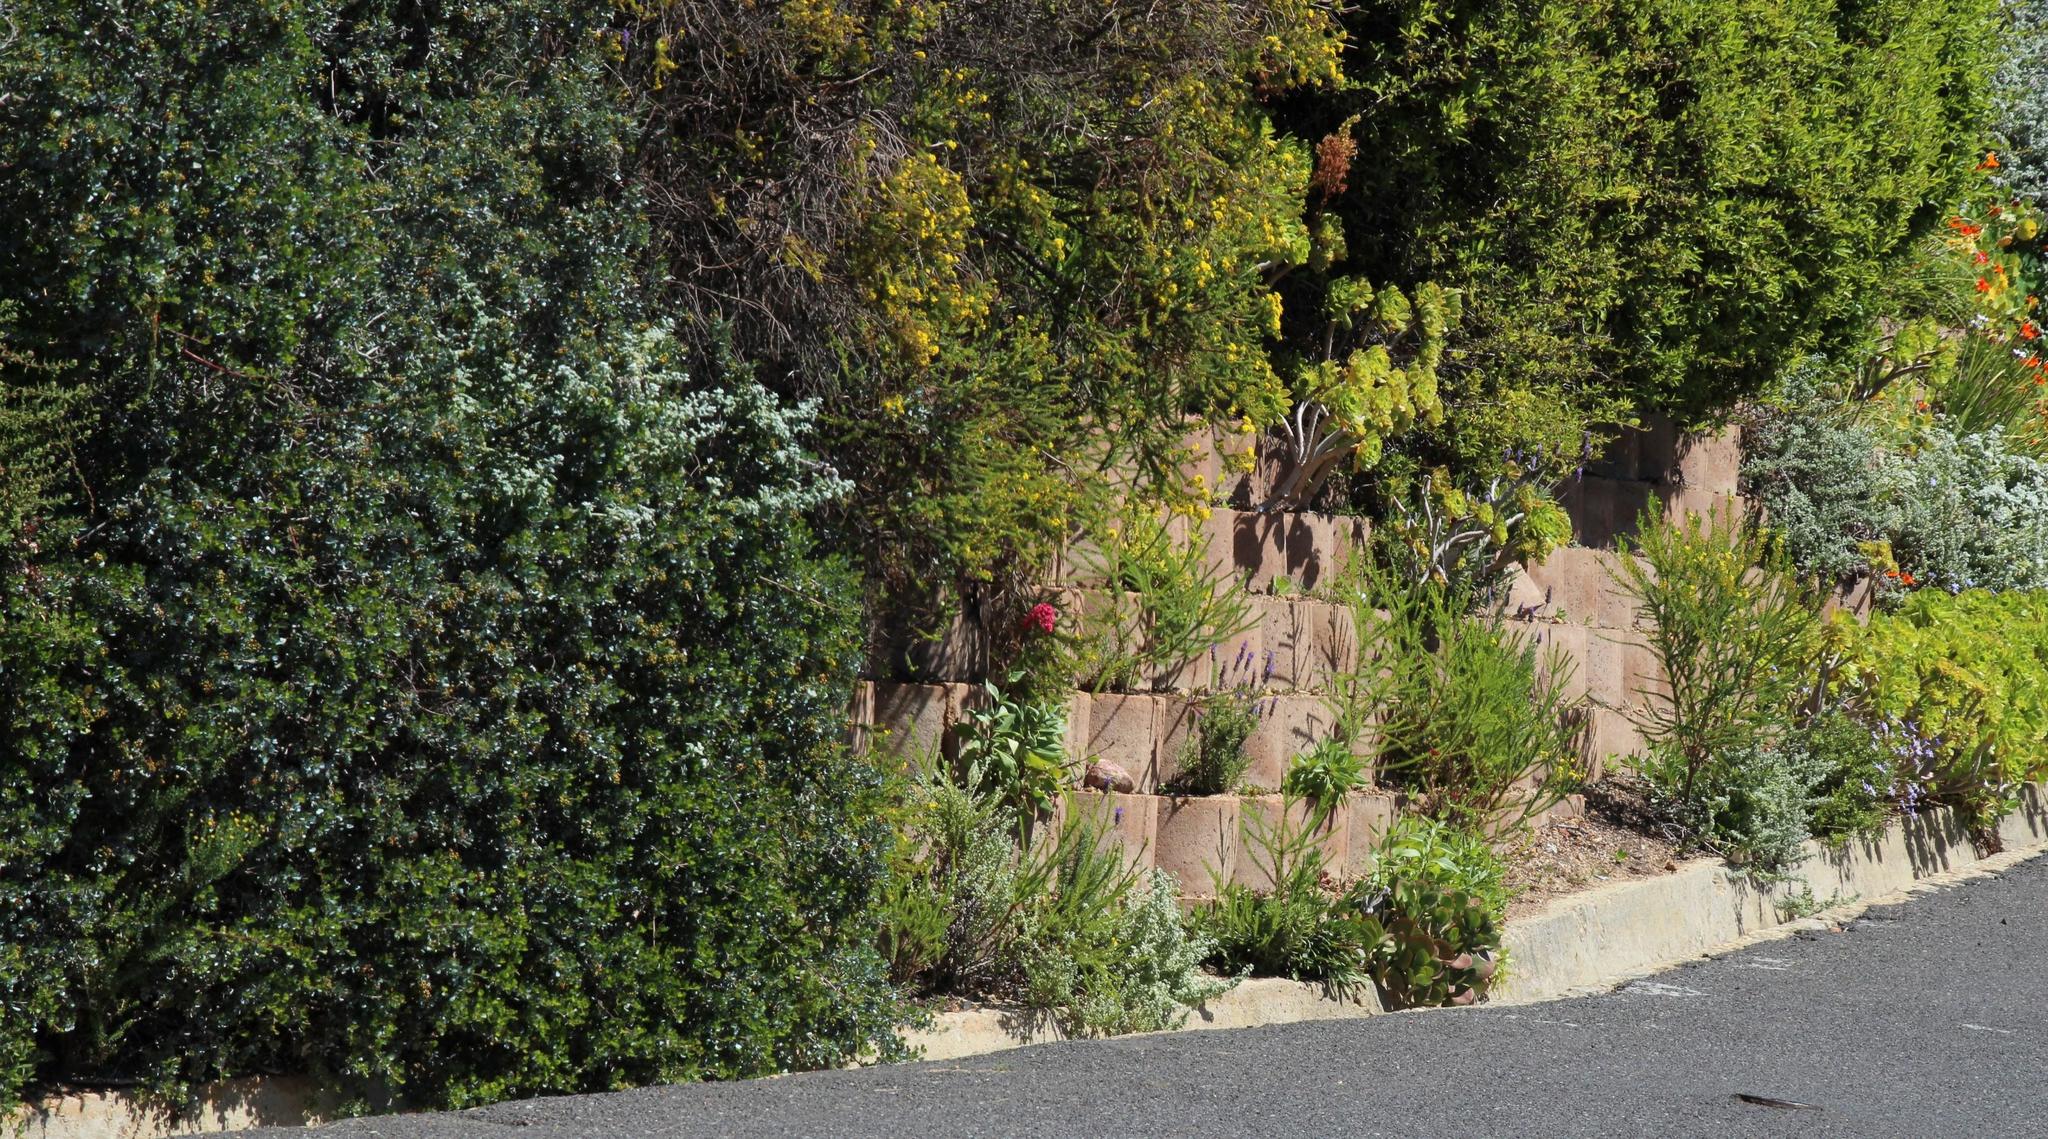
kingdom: Plantae
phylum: Tracheophyta
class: Magnoliopsida
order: Dipsacales
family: Caprifoliaceae
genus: Centranthus
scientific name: Centranthus ruber
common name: Red valerian
